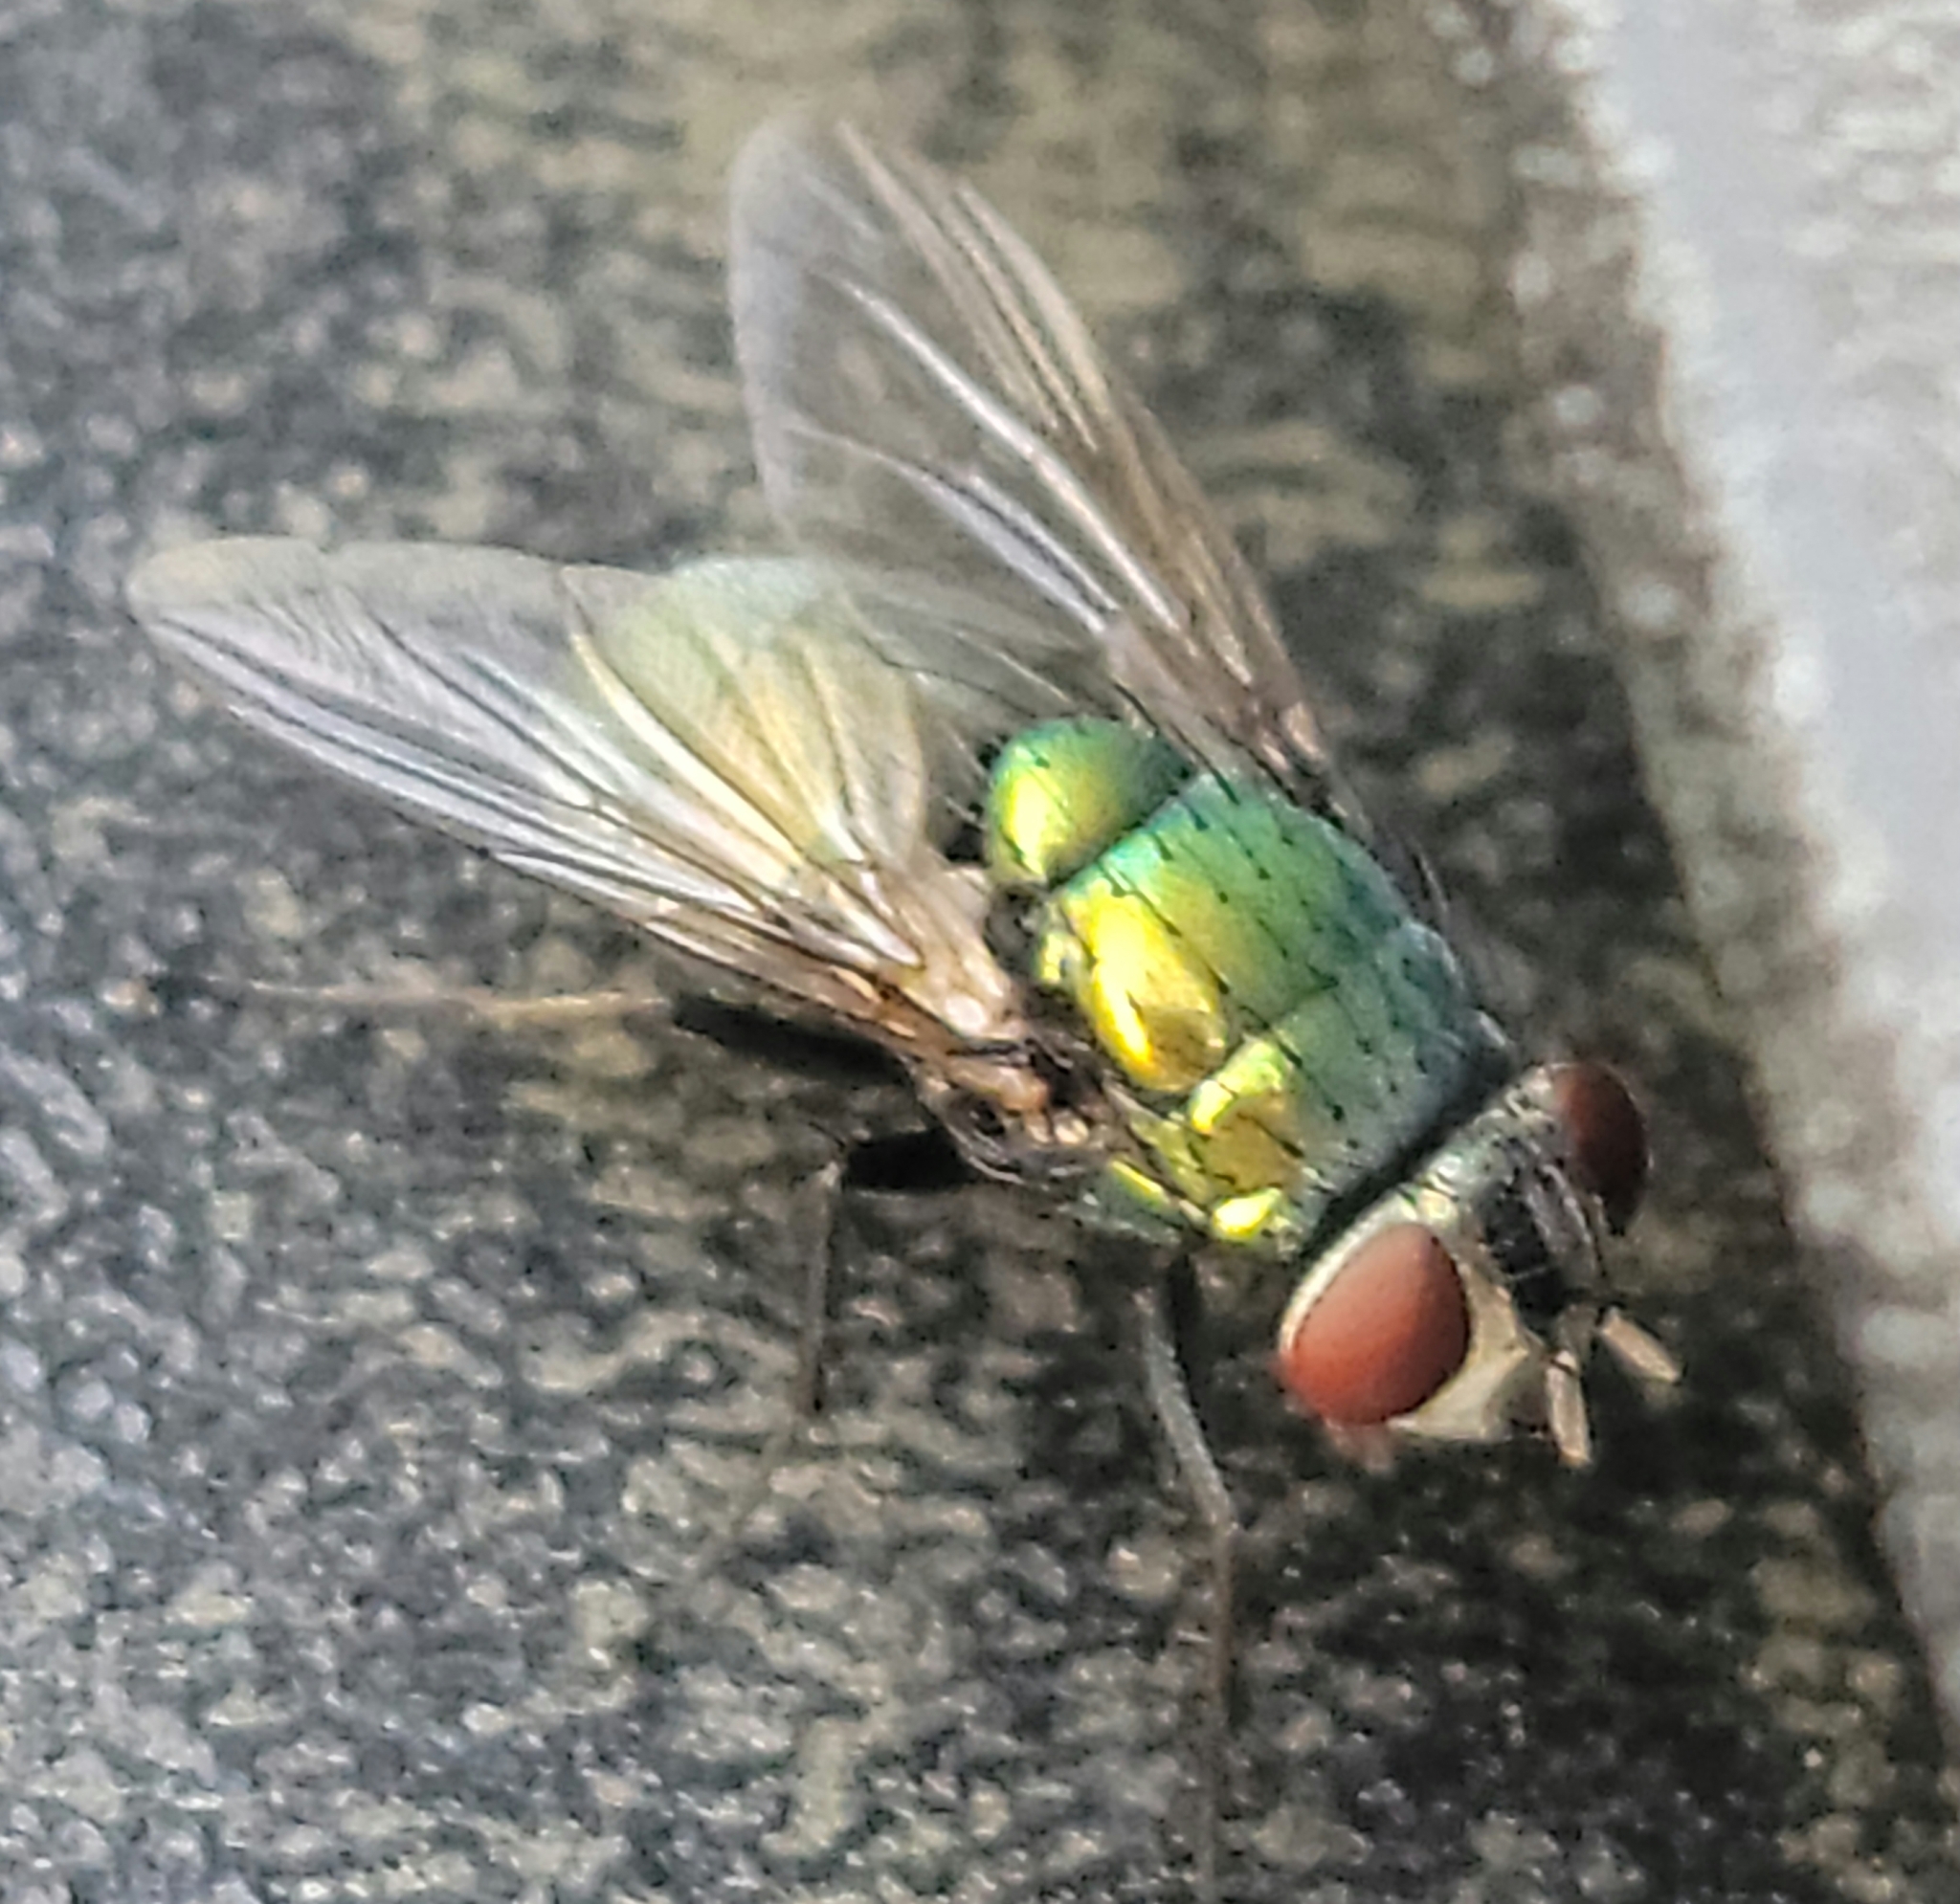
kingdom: Animalia
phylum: Arthropoda
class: Insecta
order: Diptera
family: Calliphoridae
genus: Lucilia
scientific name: Lucilia sericata
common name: Blow fly
